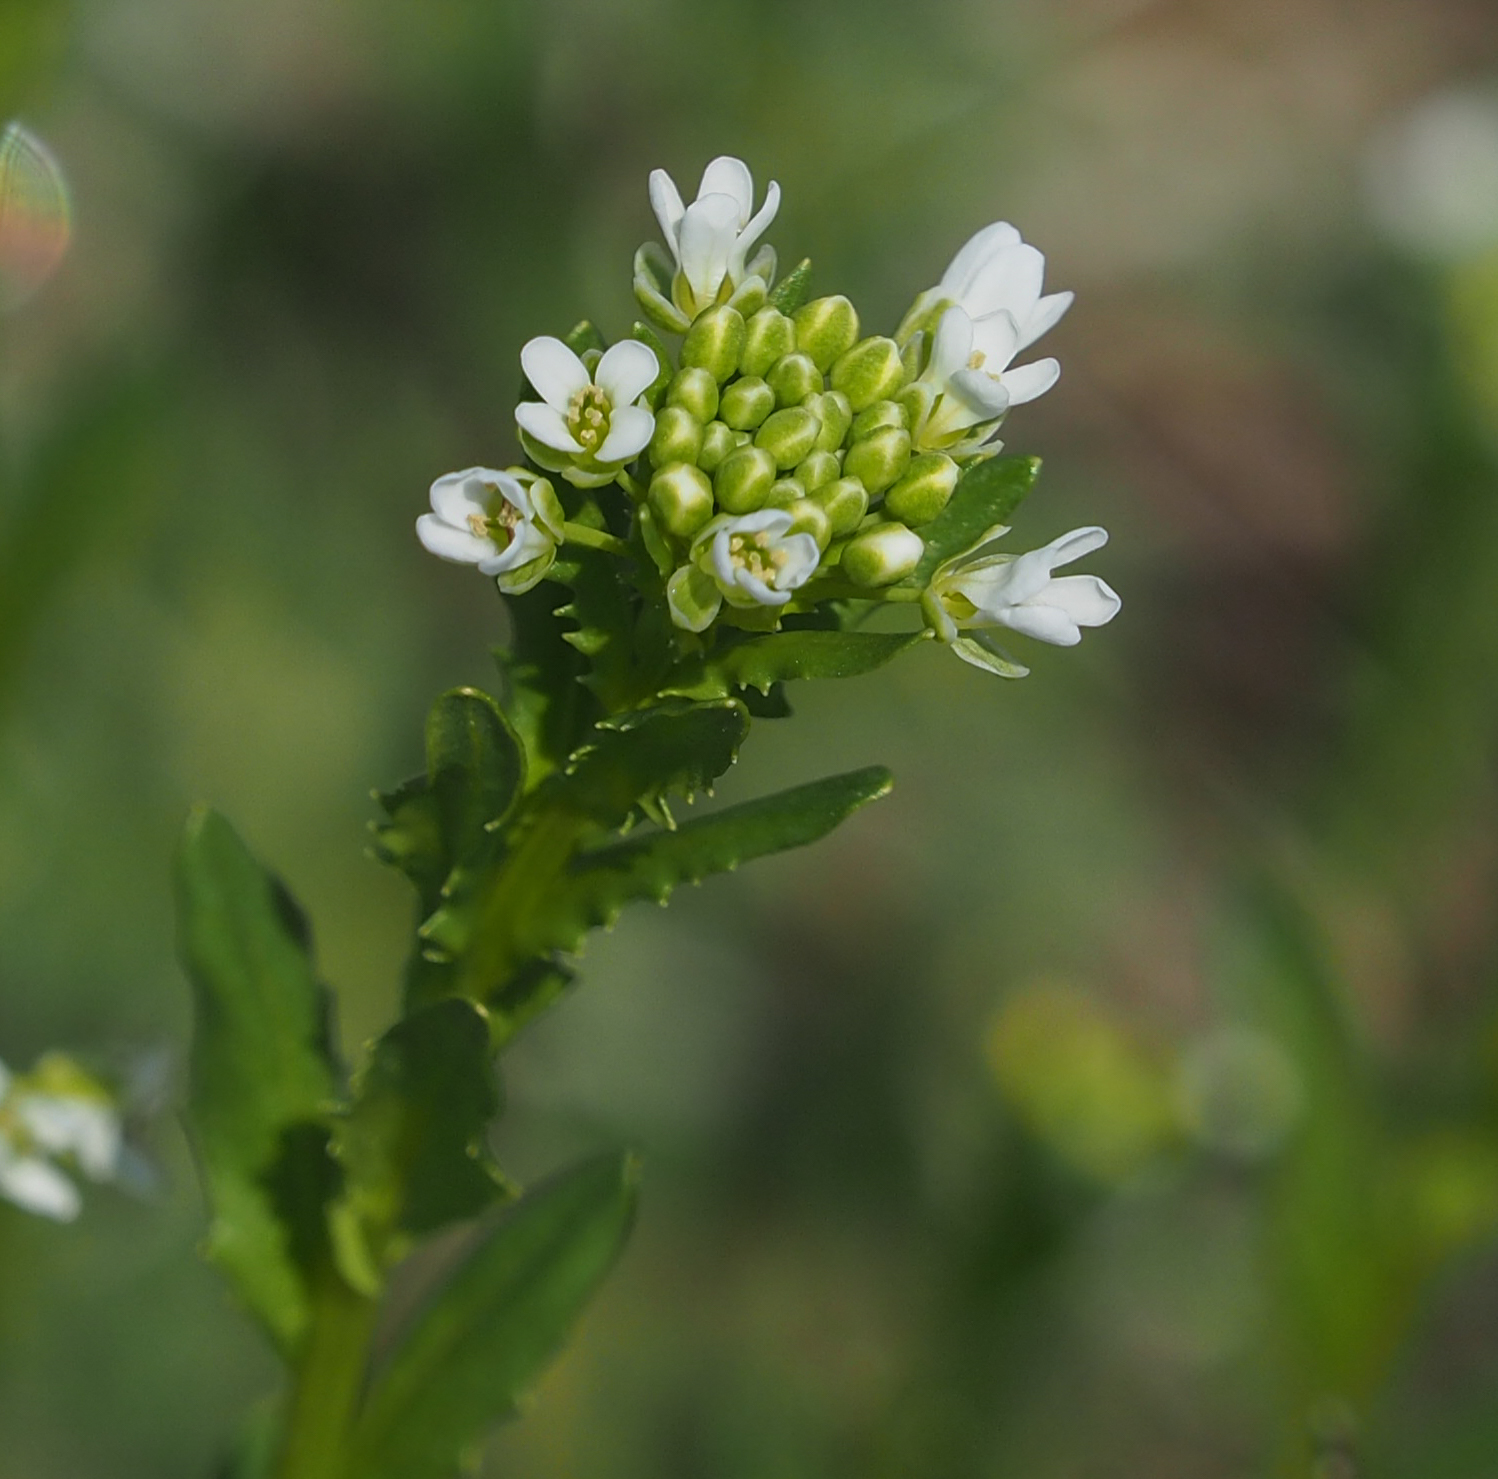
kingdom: Plantae
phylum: Tracheophyta
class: Magnoliopsida
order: Brassicales
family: Brassicaceae
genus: Thlaspi
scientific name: Thlaspi arvense
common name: Field pennycress
